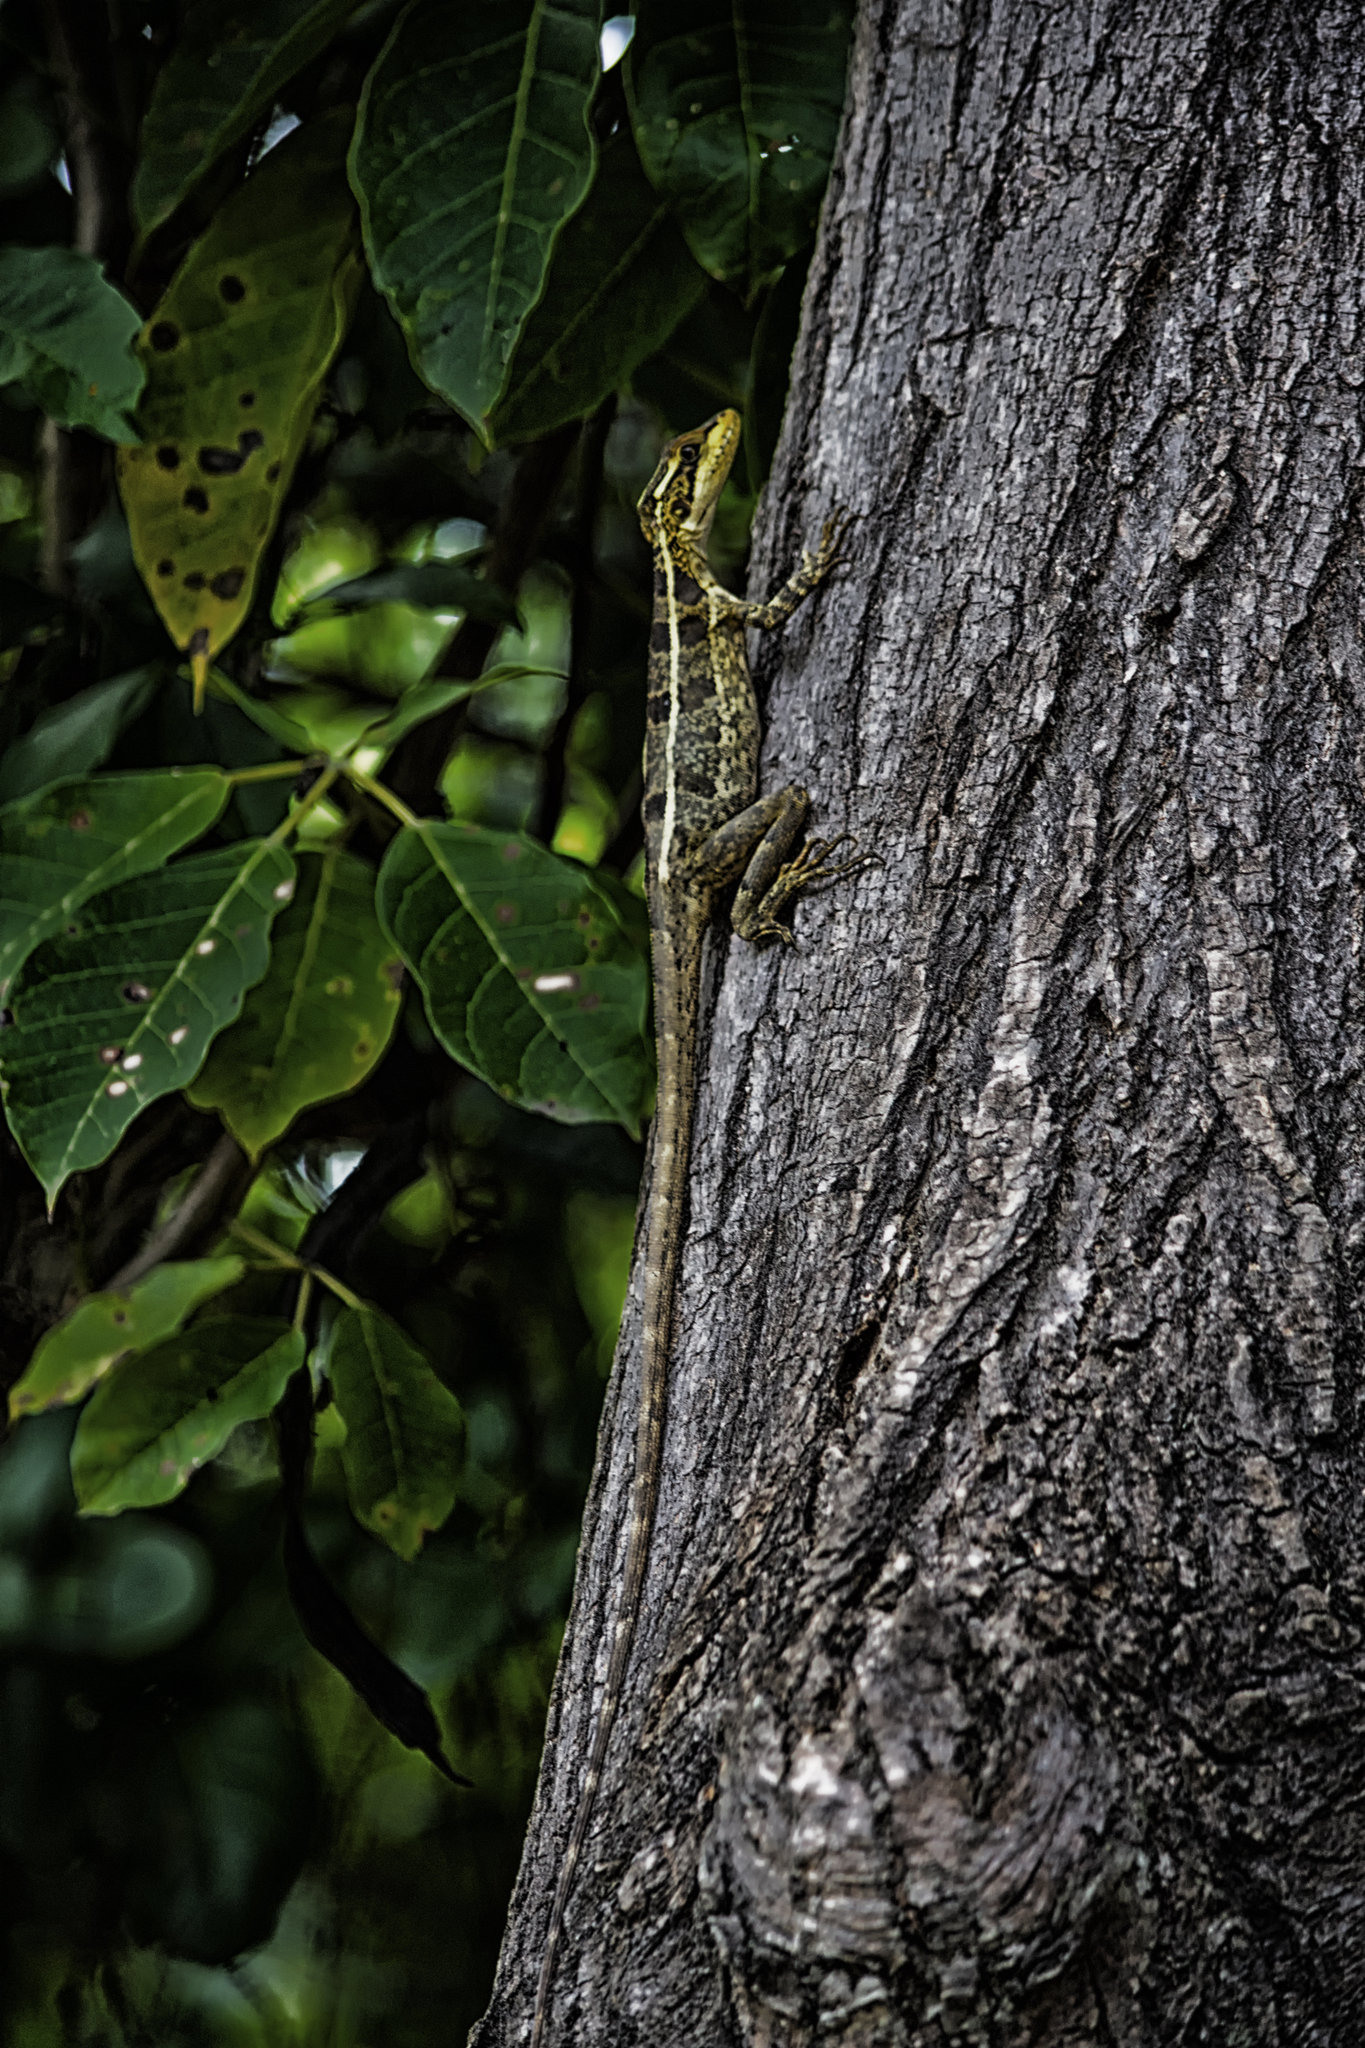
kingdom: Animalia
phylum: Chordata
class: Squamata
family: Corytophanidae
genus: Basiliscus
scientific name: Basiliscus vittatus
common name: Brown basilisk
